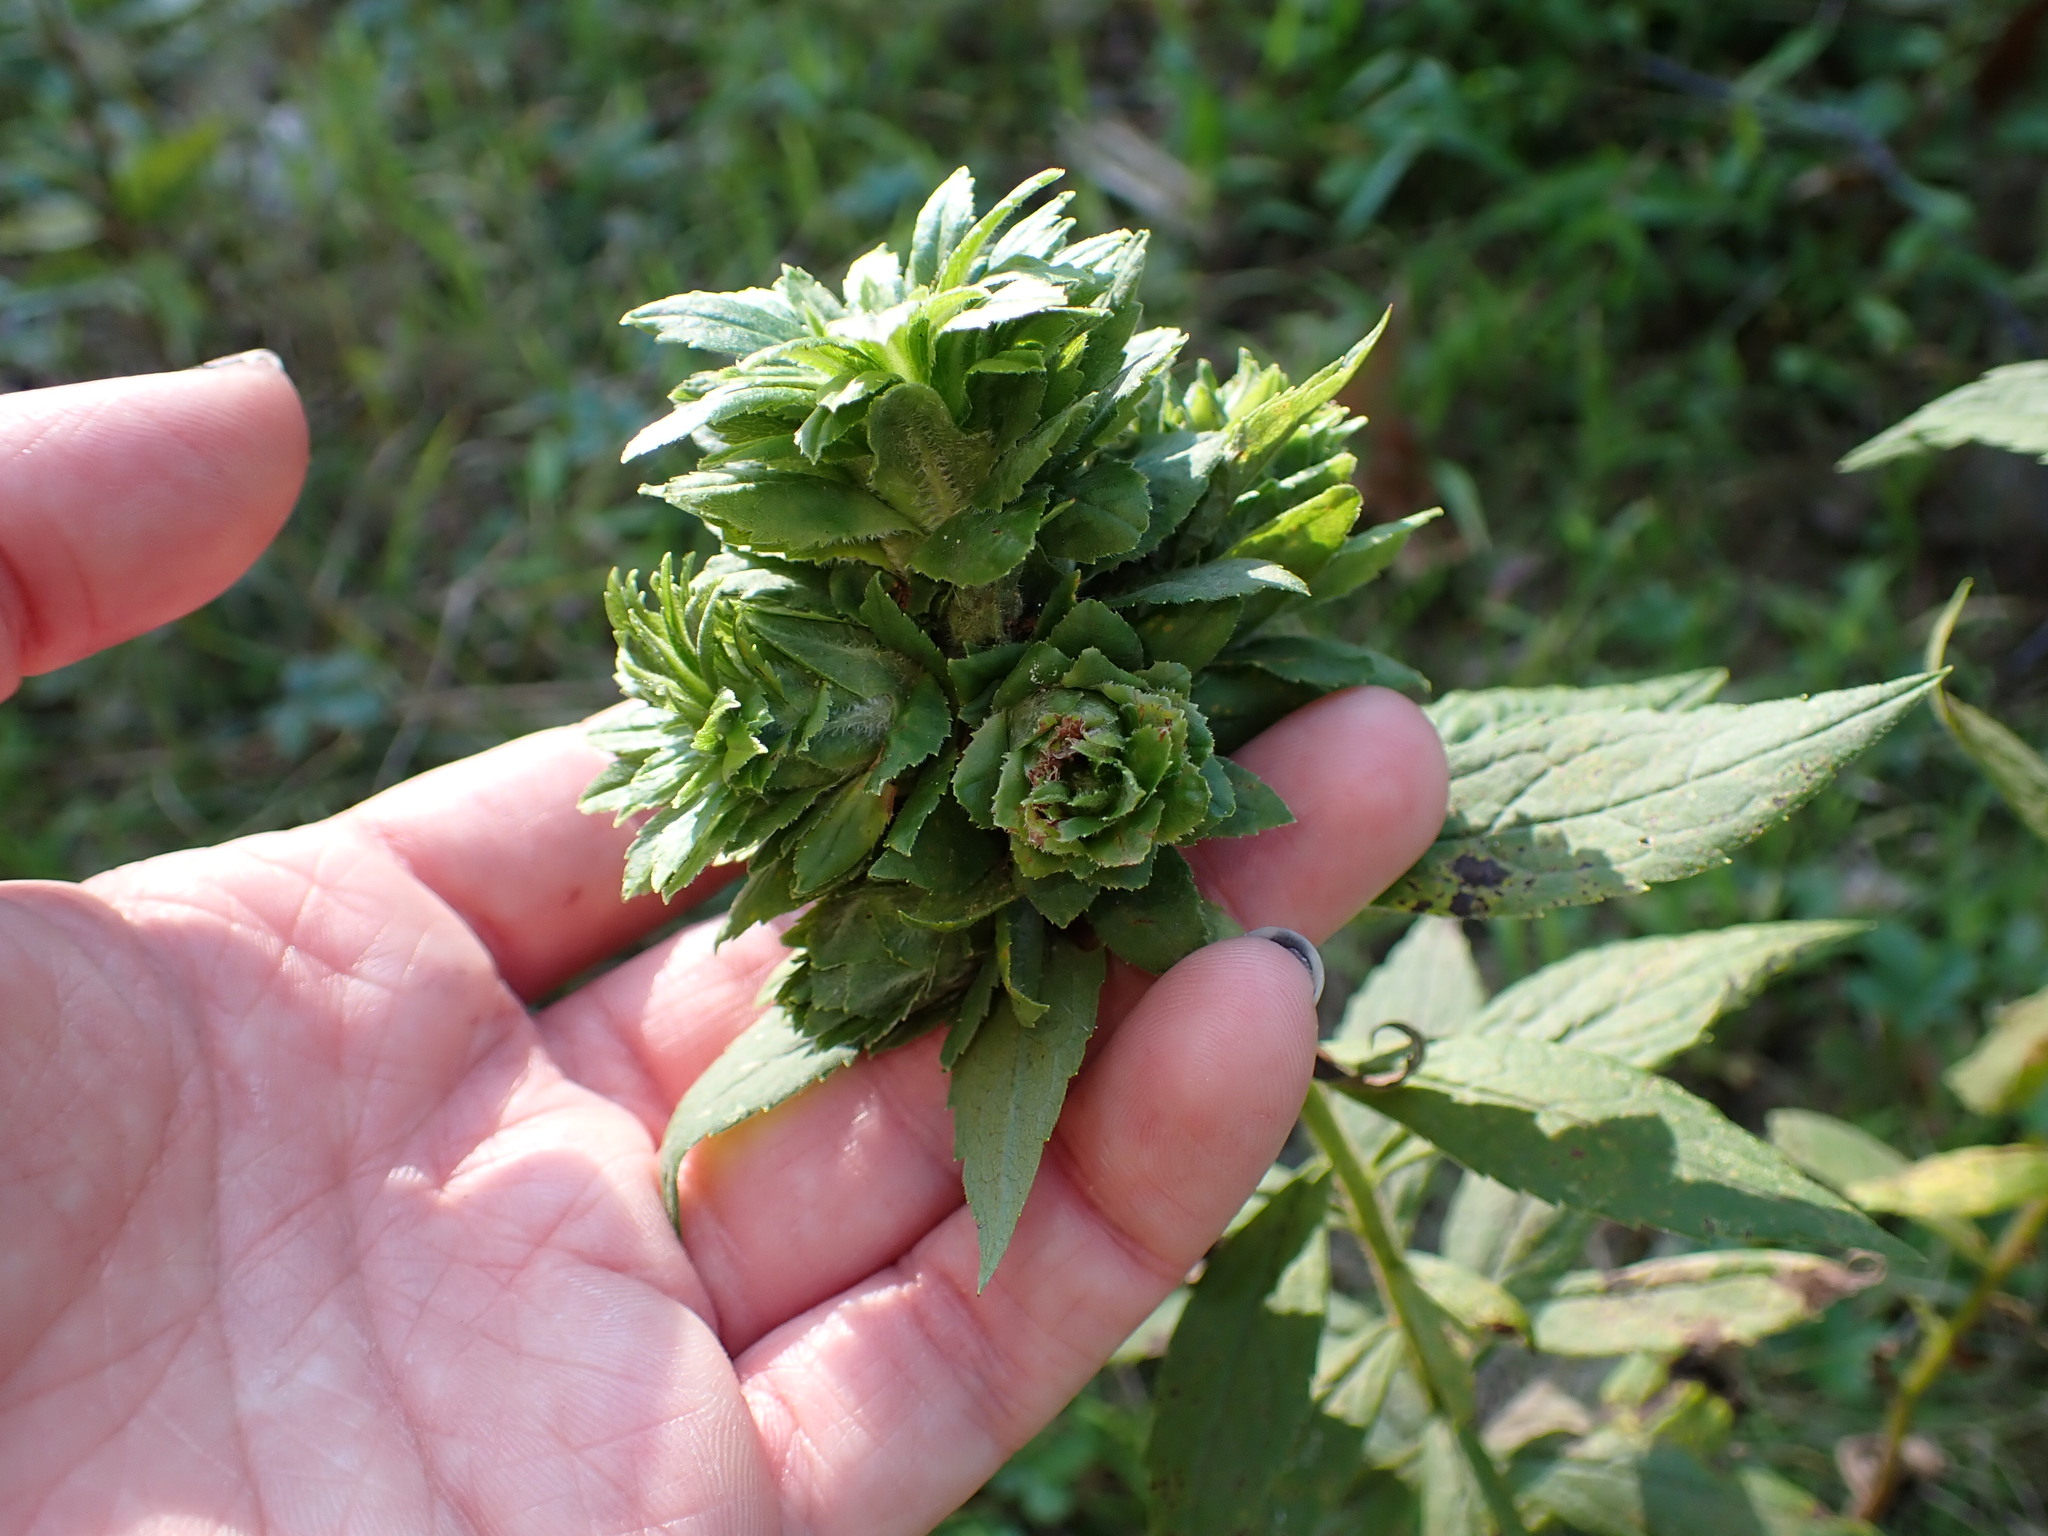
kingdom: Animalia
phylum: Arthropoda
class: Insecta
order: Diptera
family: Tephritidae
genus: Procecidochares
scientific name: Procecidochares atra
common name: Goldenrod brussels sprout gall fly
